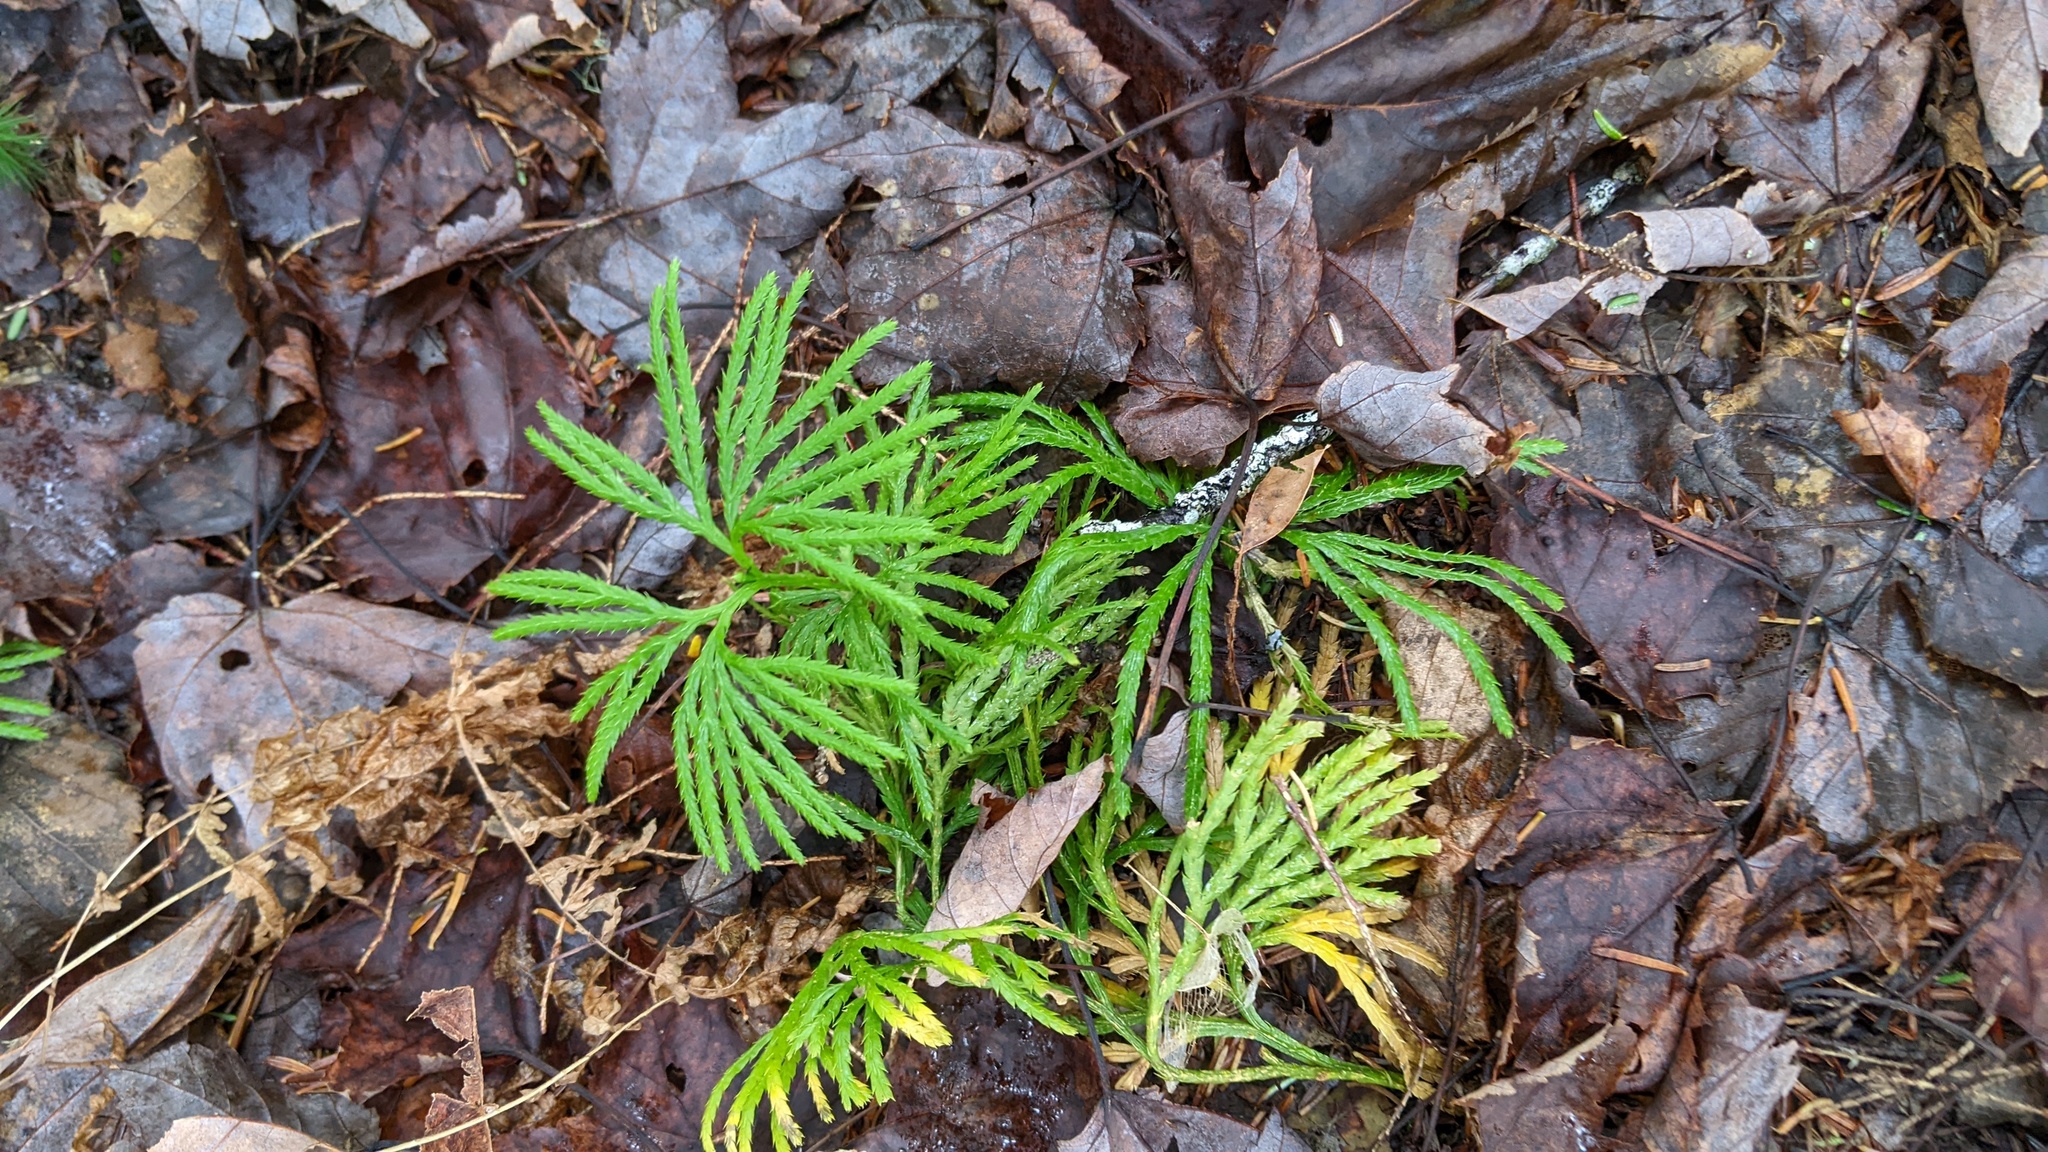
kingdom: Plantae
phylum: Tracheophyta
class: Lycopodiopsida
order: Lycopodiales
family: Lycopodiaceae
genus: Diphasiastrum
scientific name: Diphasiastrum digitatum
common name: Southern running-pine
